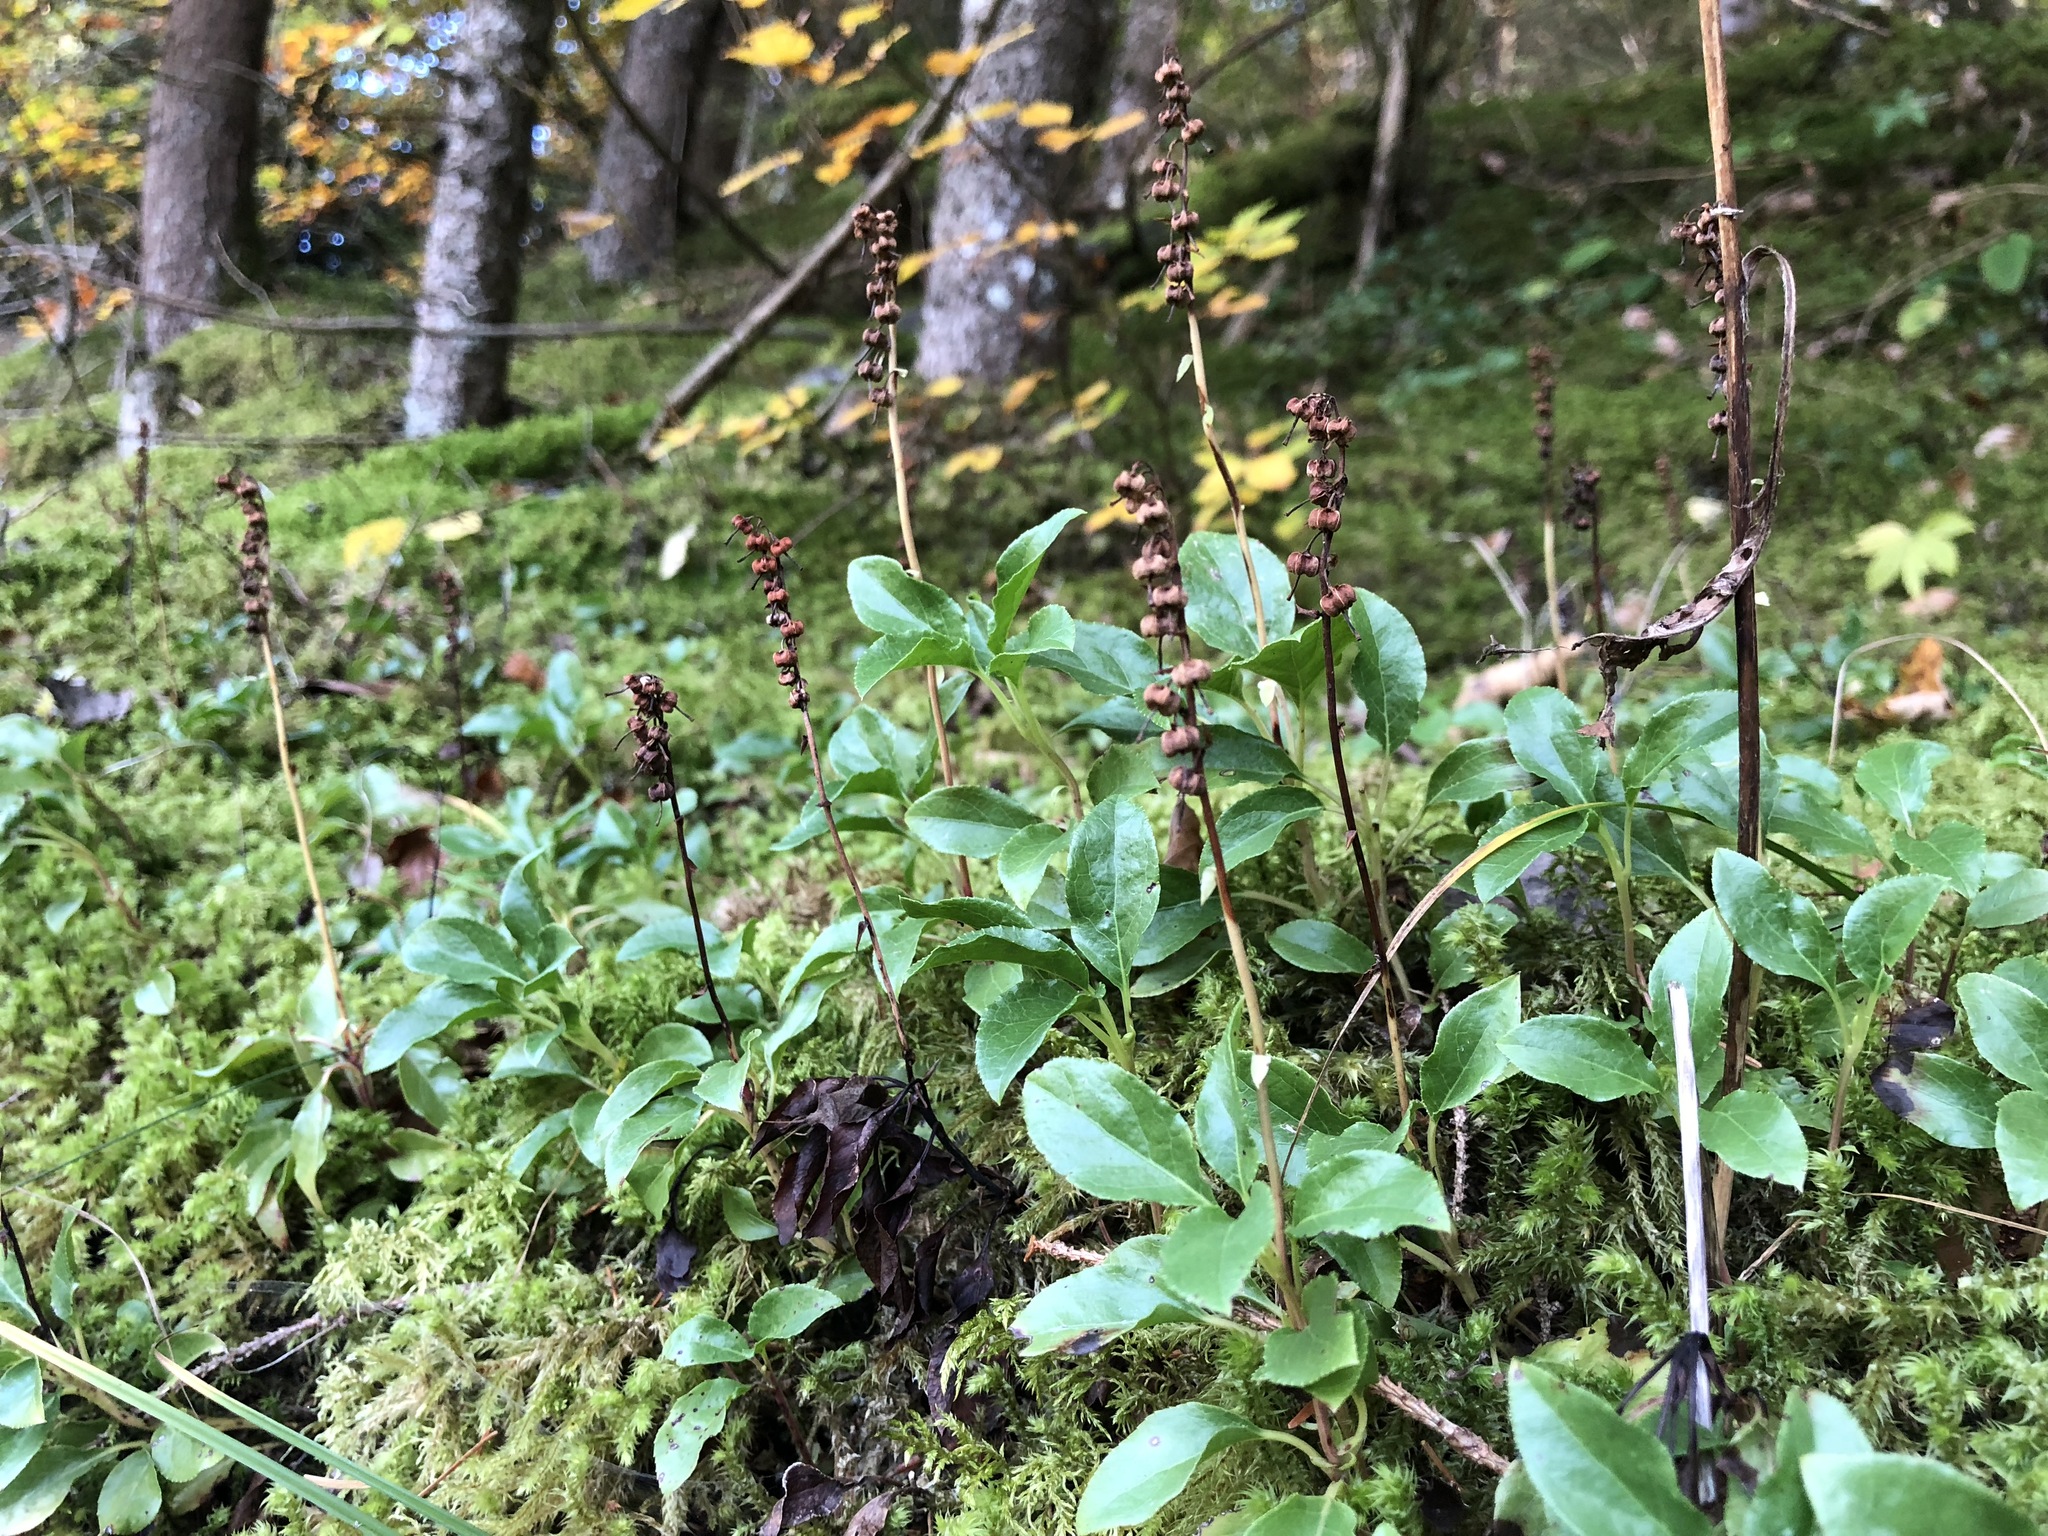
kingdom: Plantae
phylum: Tracheophyta
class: Magnoliopsida
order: Ericales
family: Ericaceae
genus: Orthilia
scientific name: Orthilia secunda
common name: One-sided orthilia
